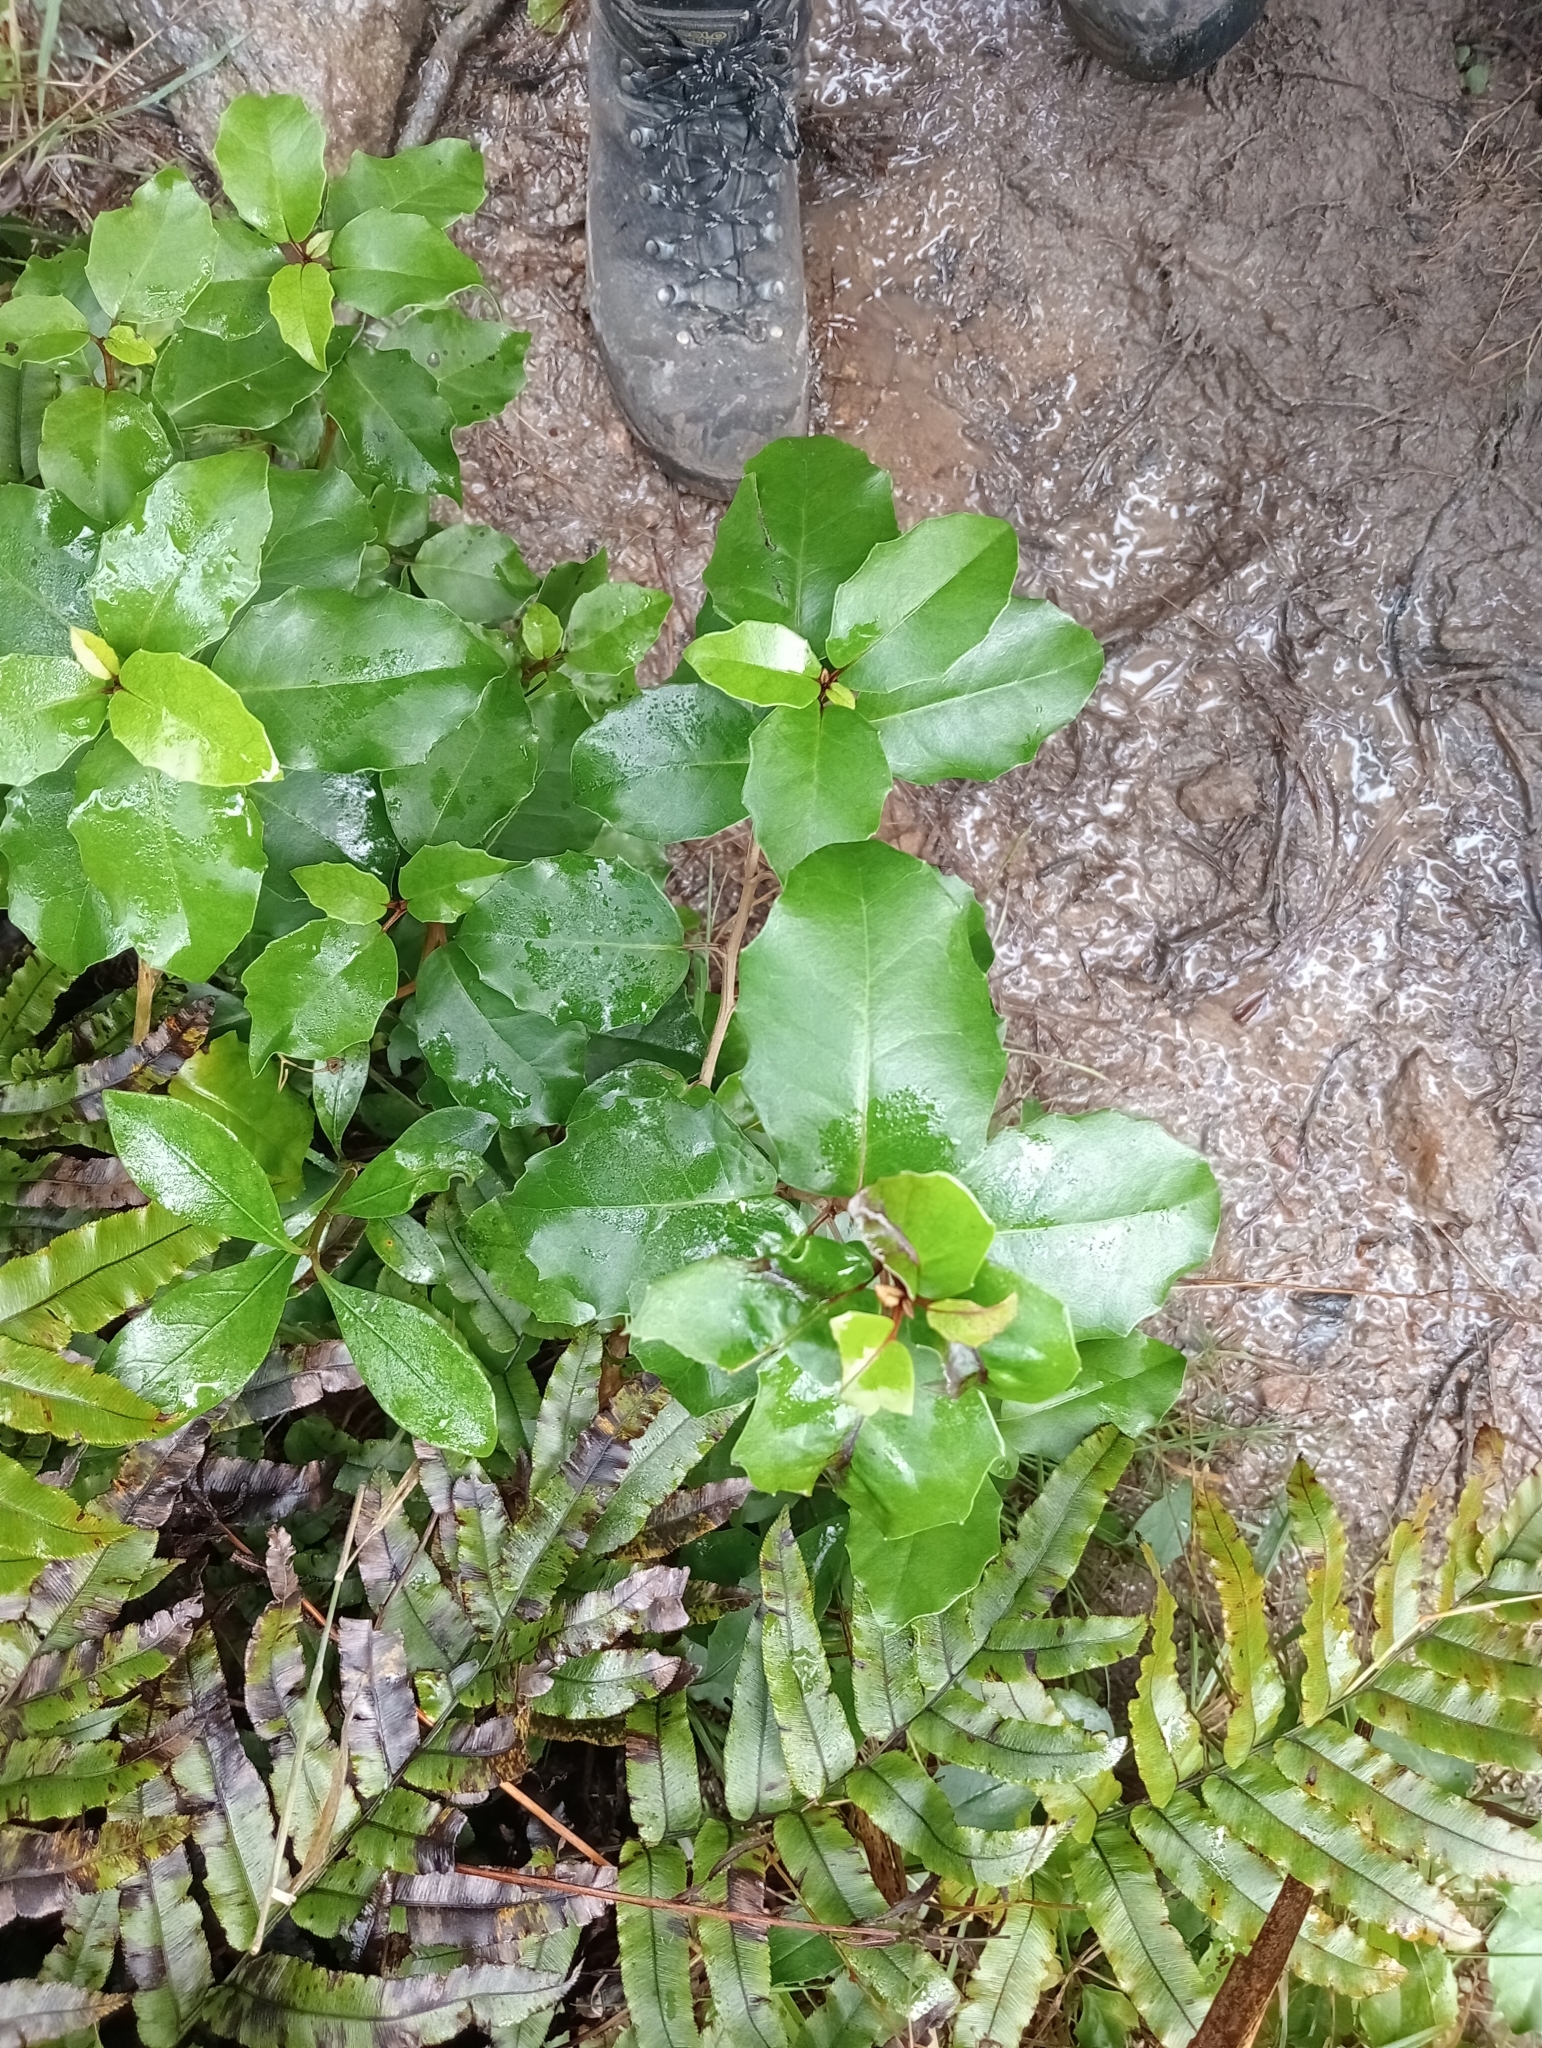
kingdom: Plantae
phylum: Tracheophyta
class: Magnoliopsida
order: Asterales
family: Asteraceae
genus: Olearia
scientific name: Olearia arborescens
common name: Glossy tree daisy
